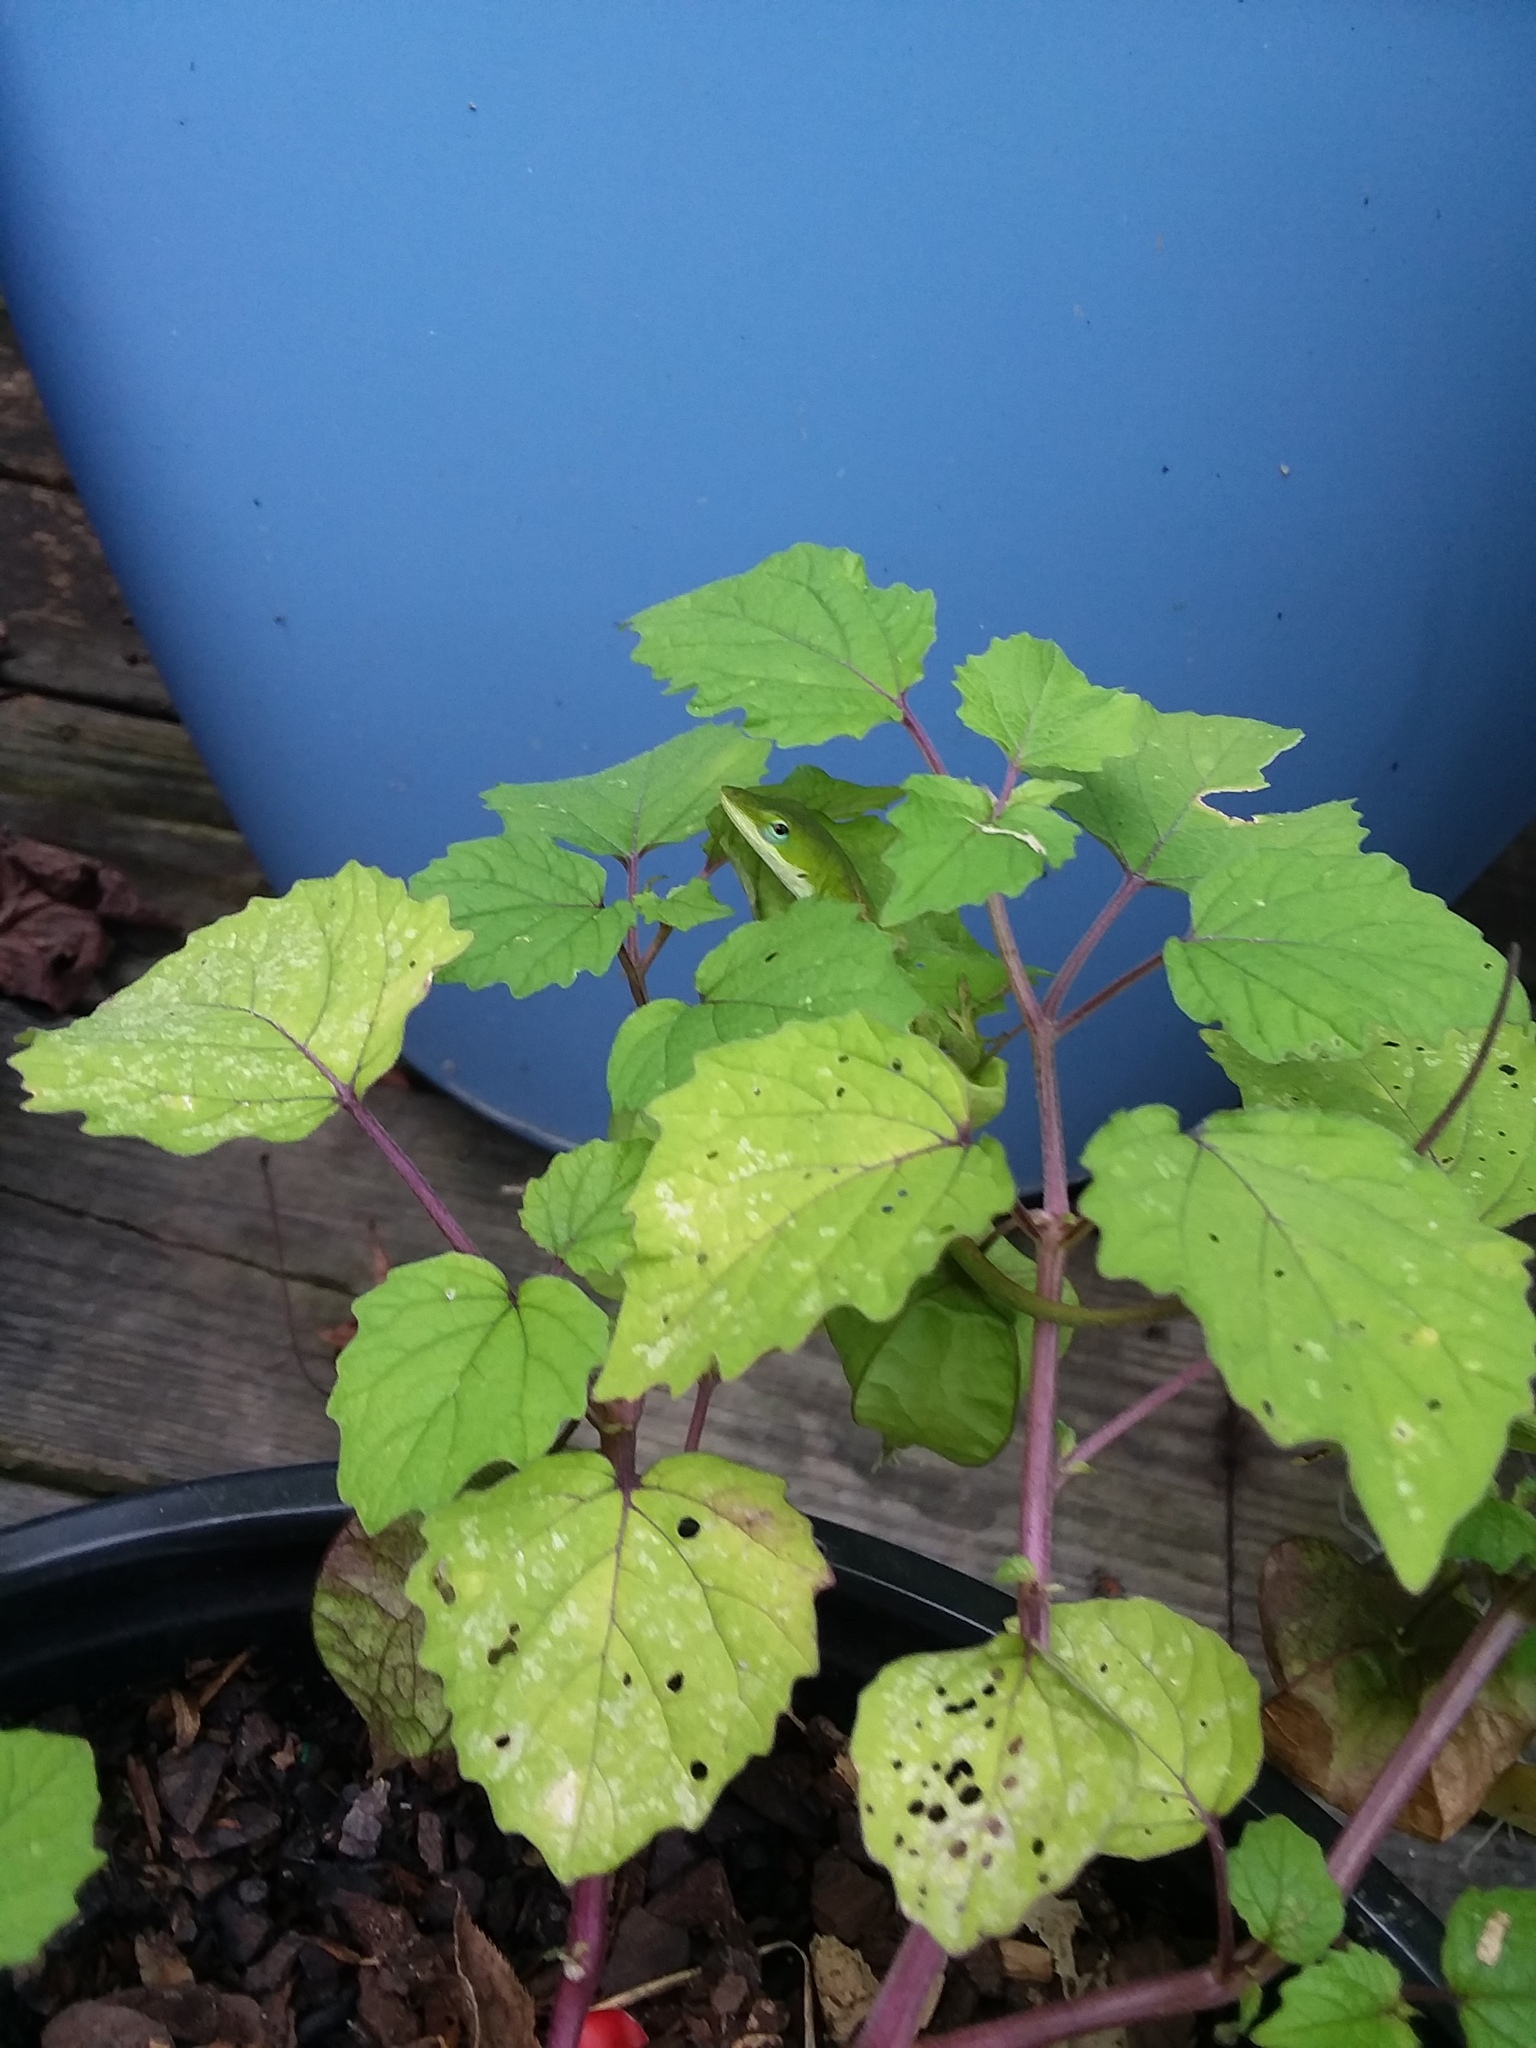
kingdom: Animalia
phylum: Chordata
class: Squamata
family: Dactyloidae
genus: Anolis
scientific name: Anolis carolinensis
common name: Green anole
